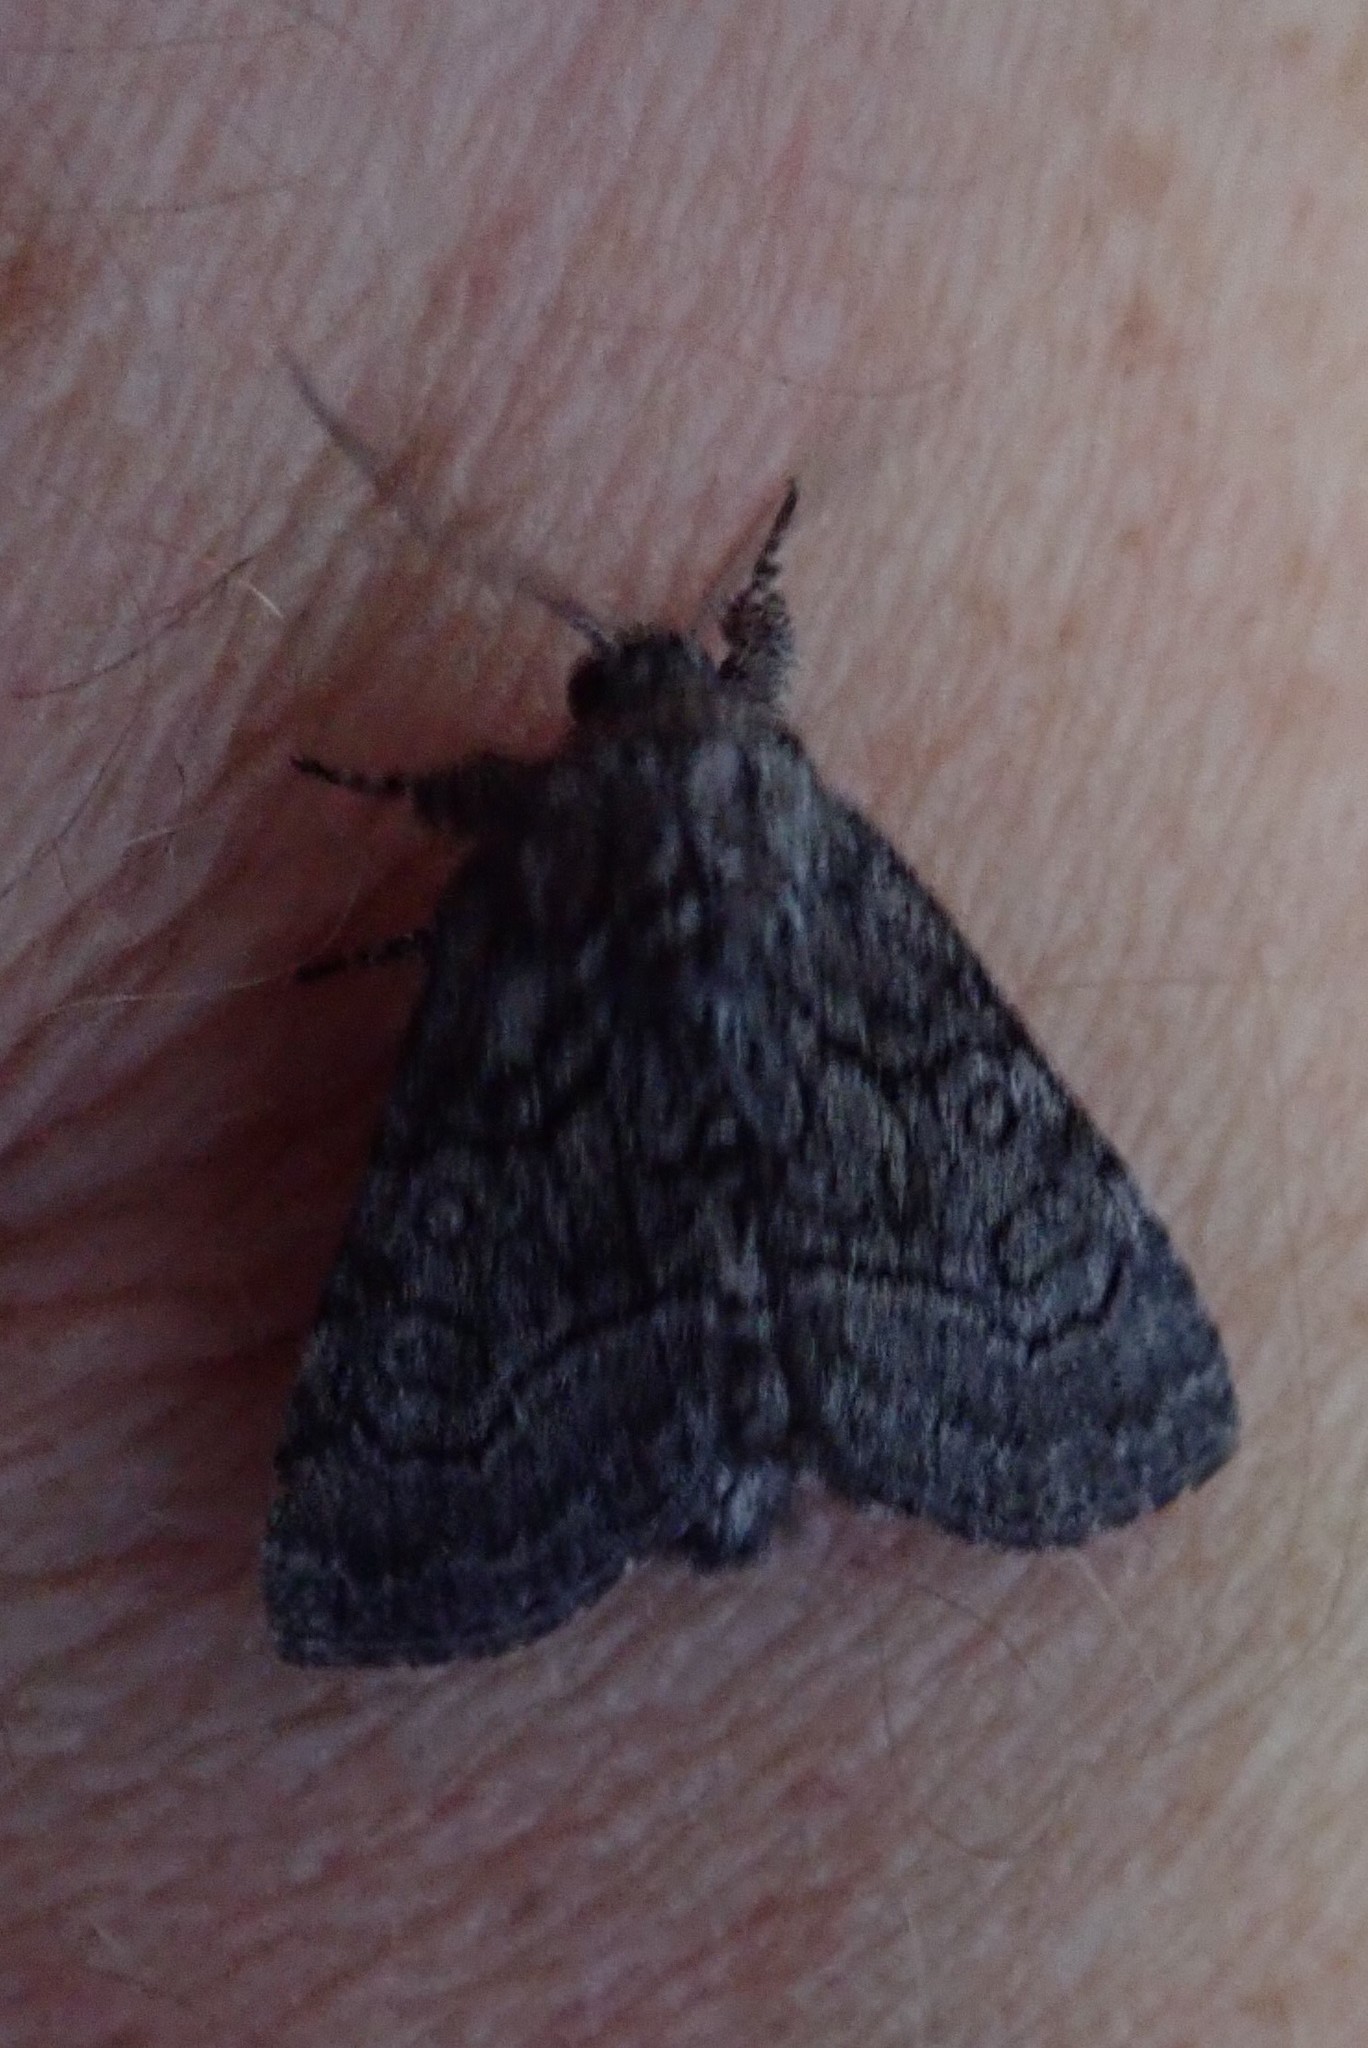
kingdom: Animalia
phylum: Arthropoda
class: Insecta
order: Lepidoptera
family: Noctuidae
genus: Raphia
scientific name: Raphia frater
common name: Brother
